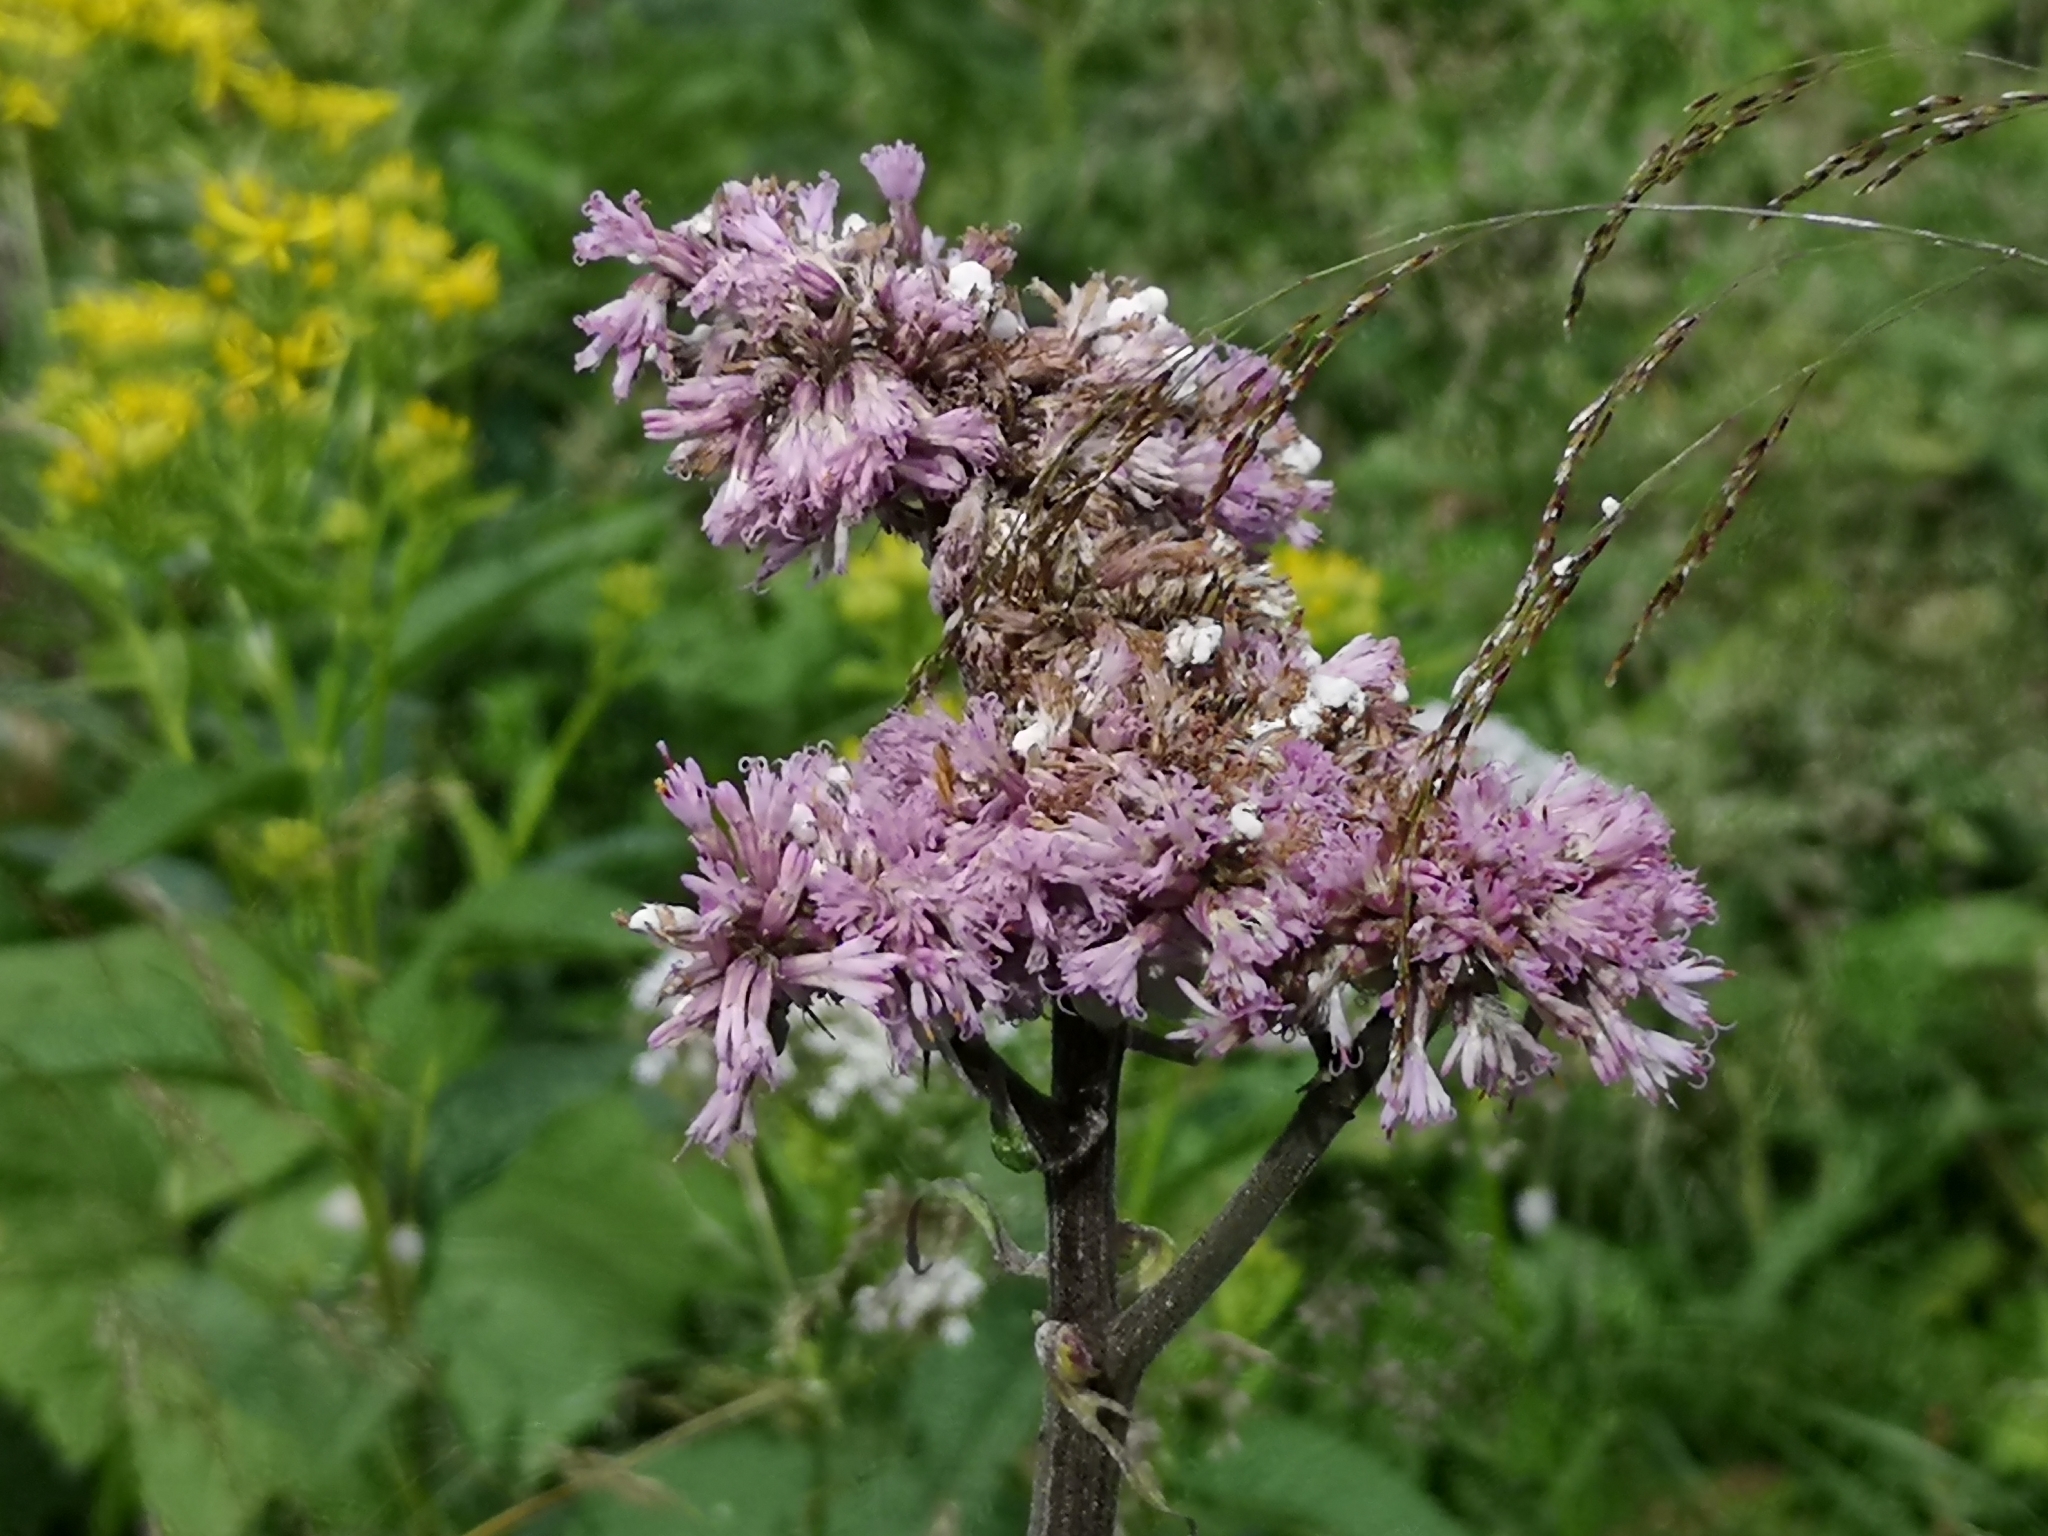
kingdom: Plantae
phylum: Tracheophyta
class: Magnoliopsida
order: Asterales
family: Asteraceae
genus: Adenostyles
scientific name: Adenostyles alliariae
